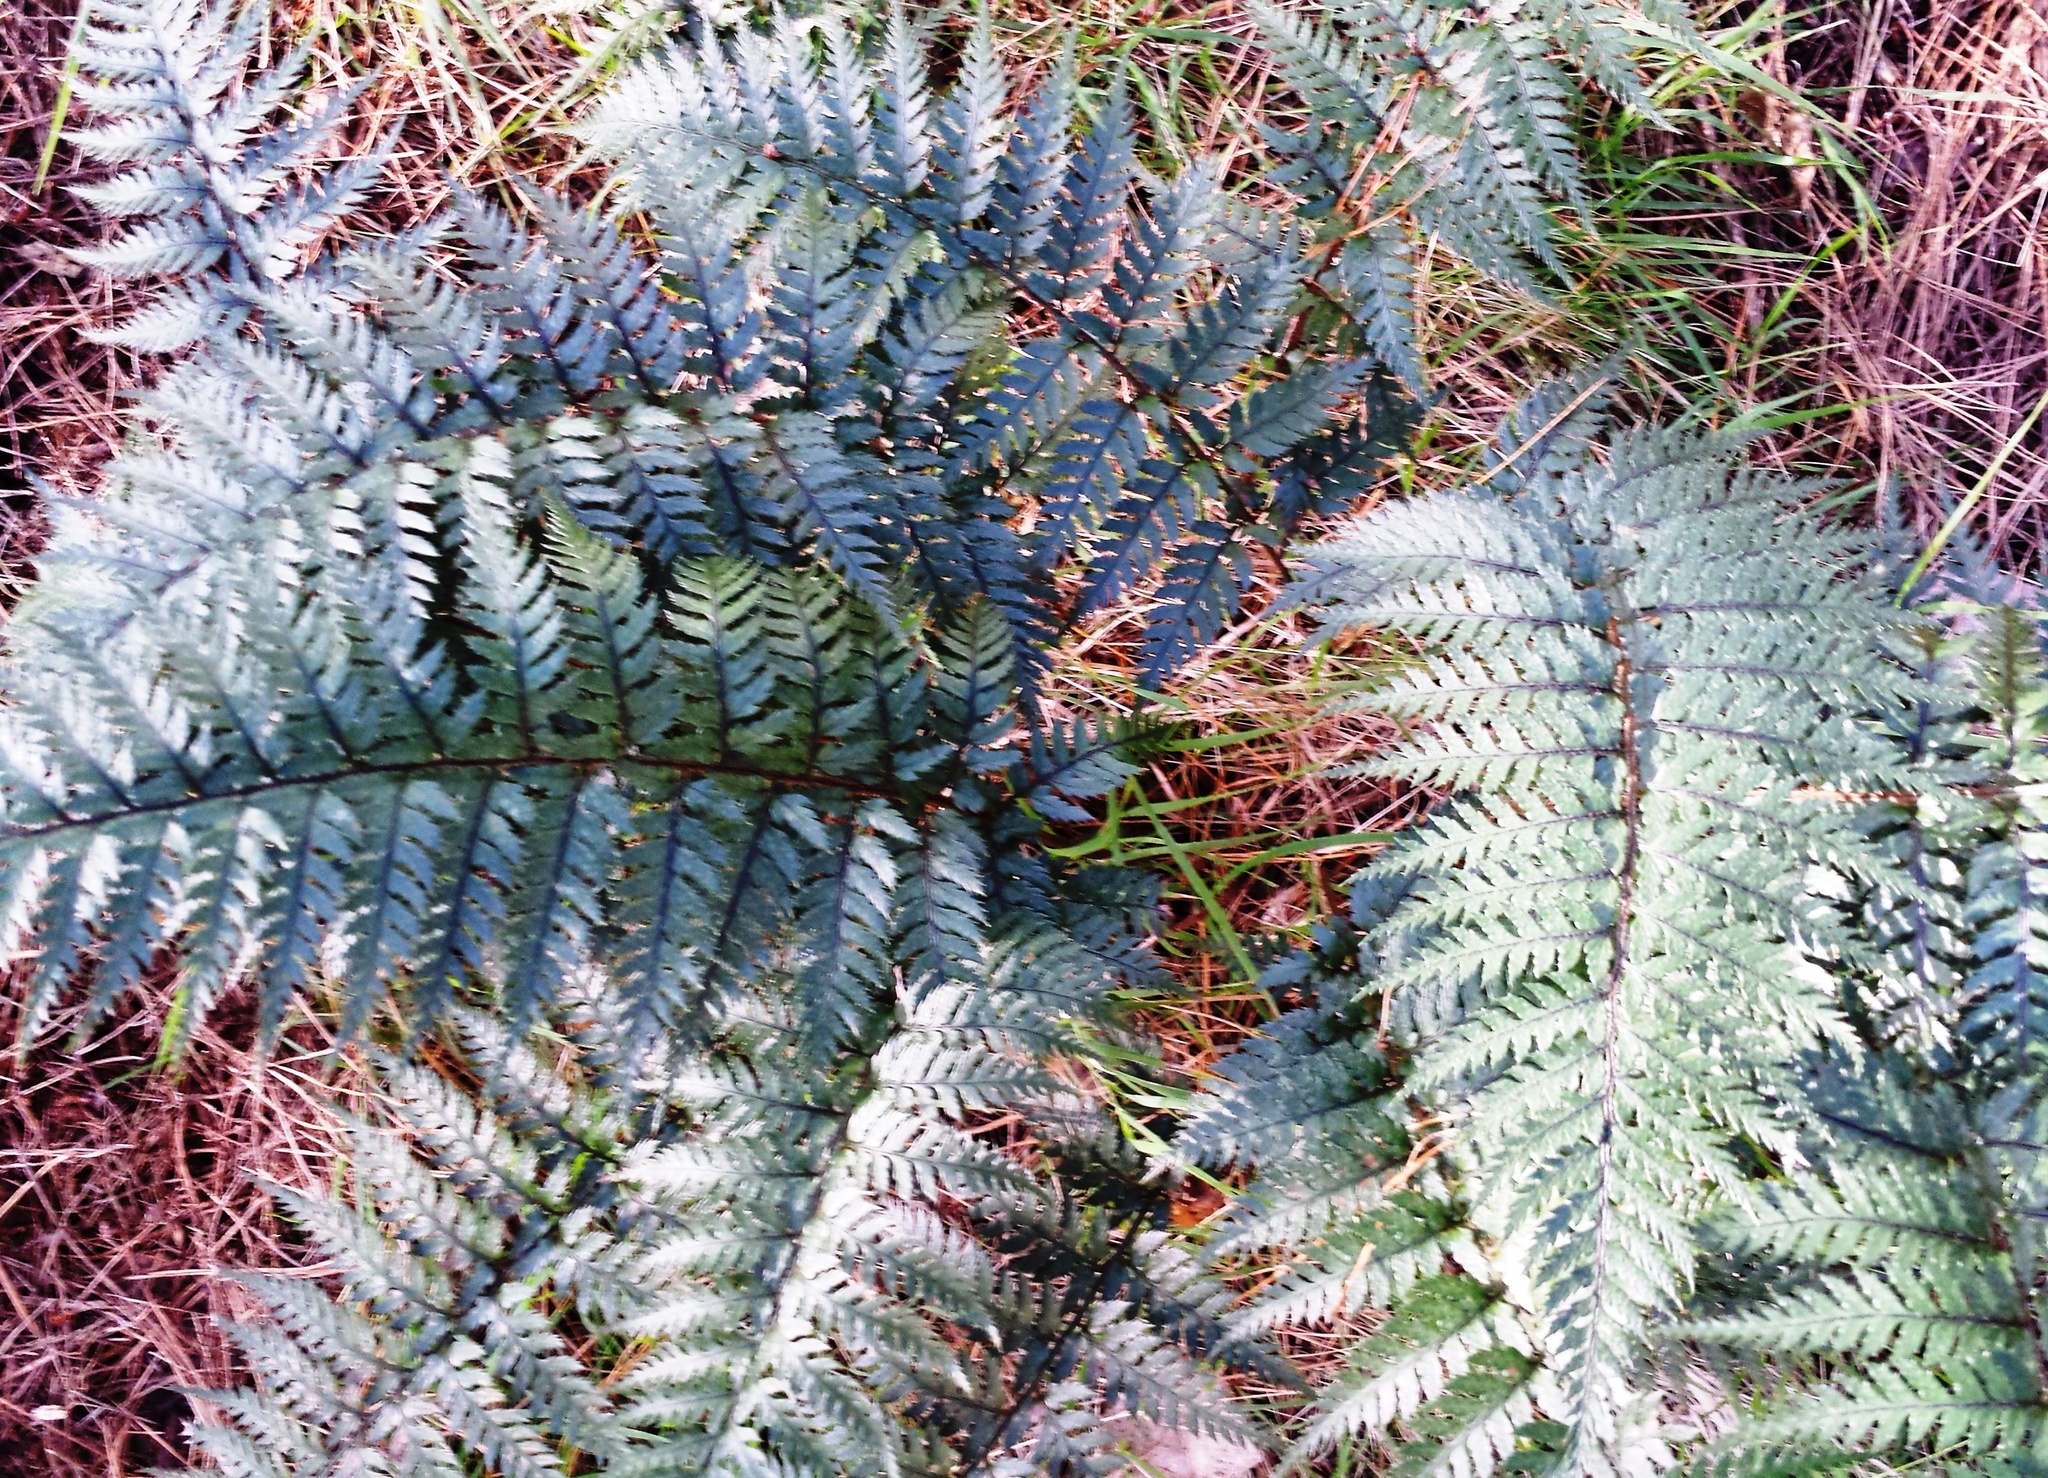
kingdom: Plantae
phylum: Tracheophyta
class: Polypodiopsida
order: Polypodiales
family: Dryopteridaceae
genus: Polystichum
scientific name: Polystichum neozelandicum
